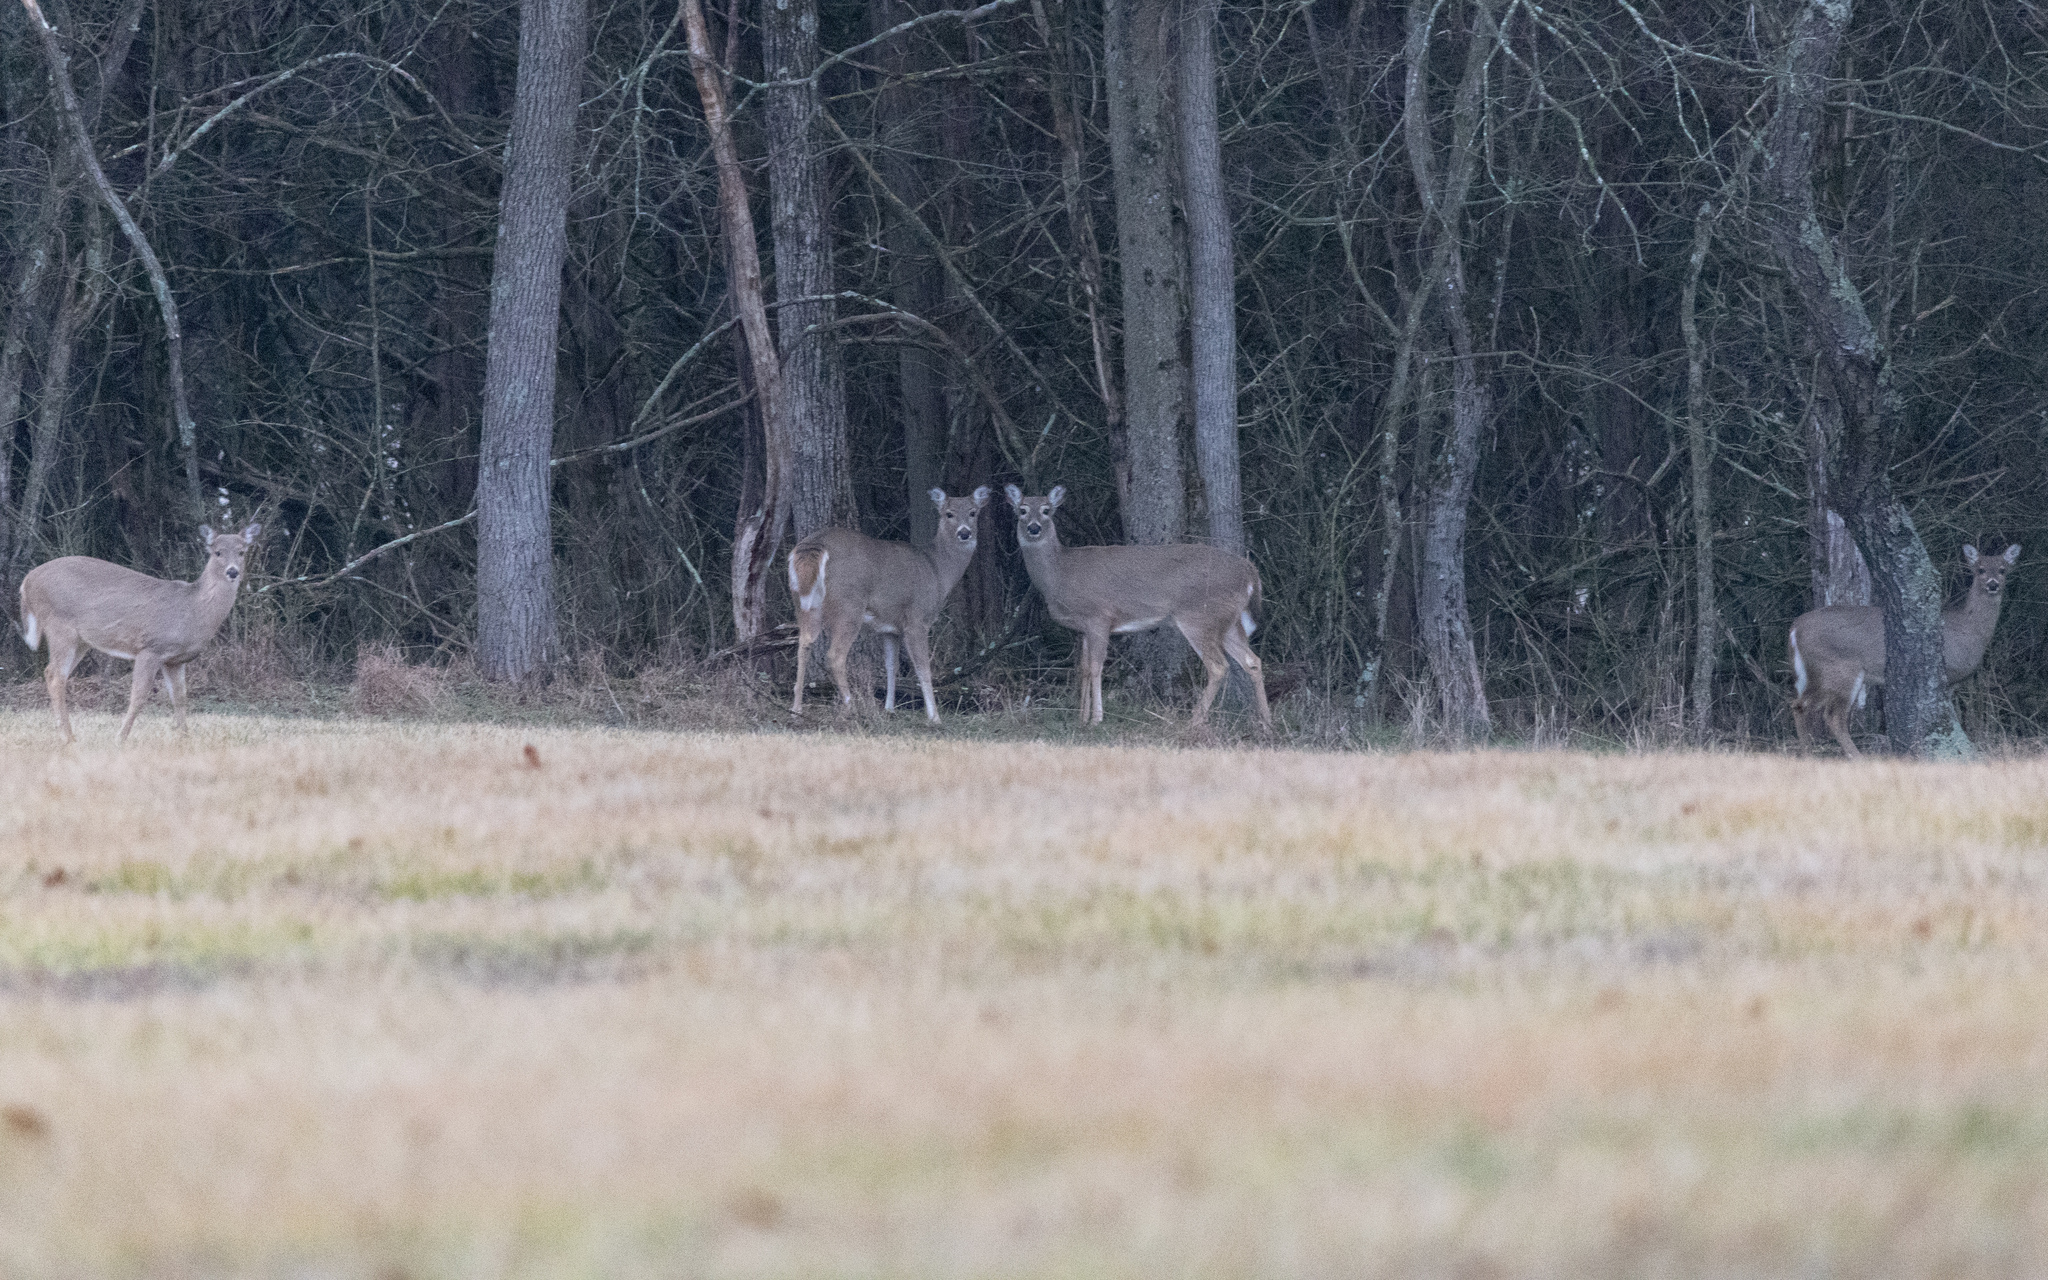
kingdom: Animalia
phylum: Chordata
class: Mammalia
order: Artiodactyla
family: Cervidae
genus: Odocoileus
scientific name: Odocoileus virginianus
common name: White-tailed deer
